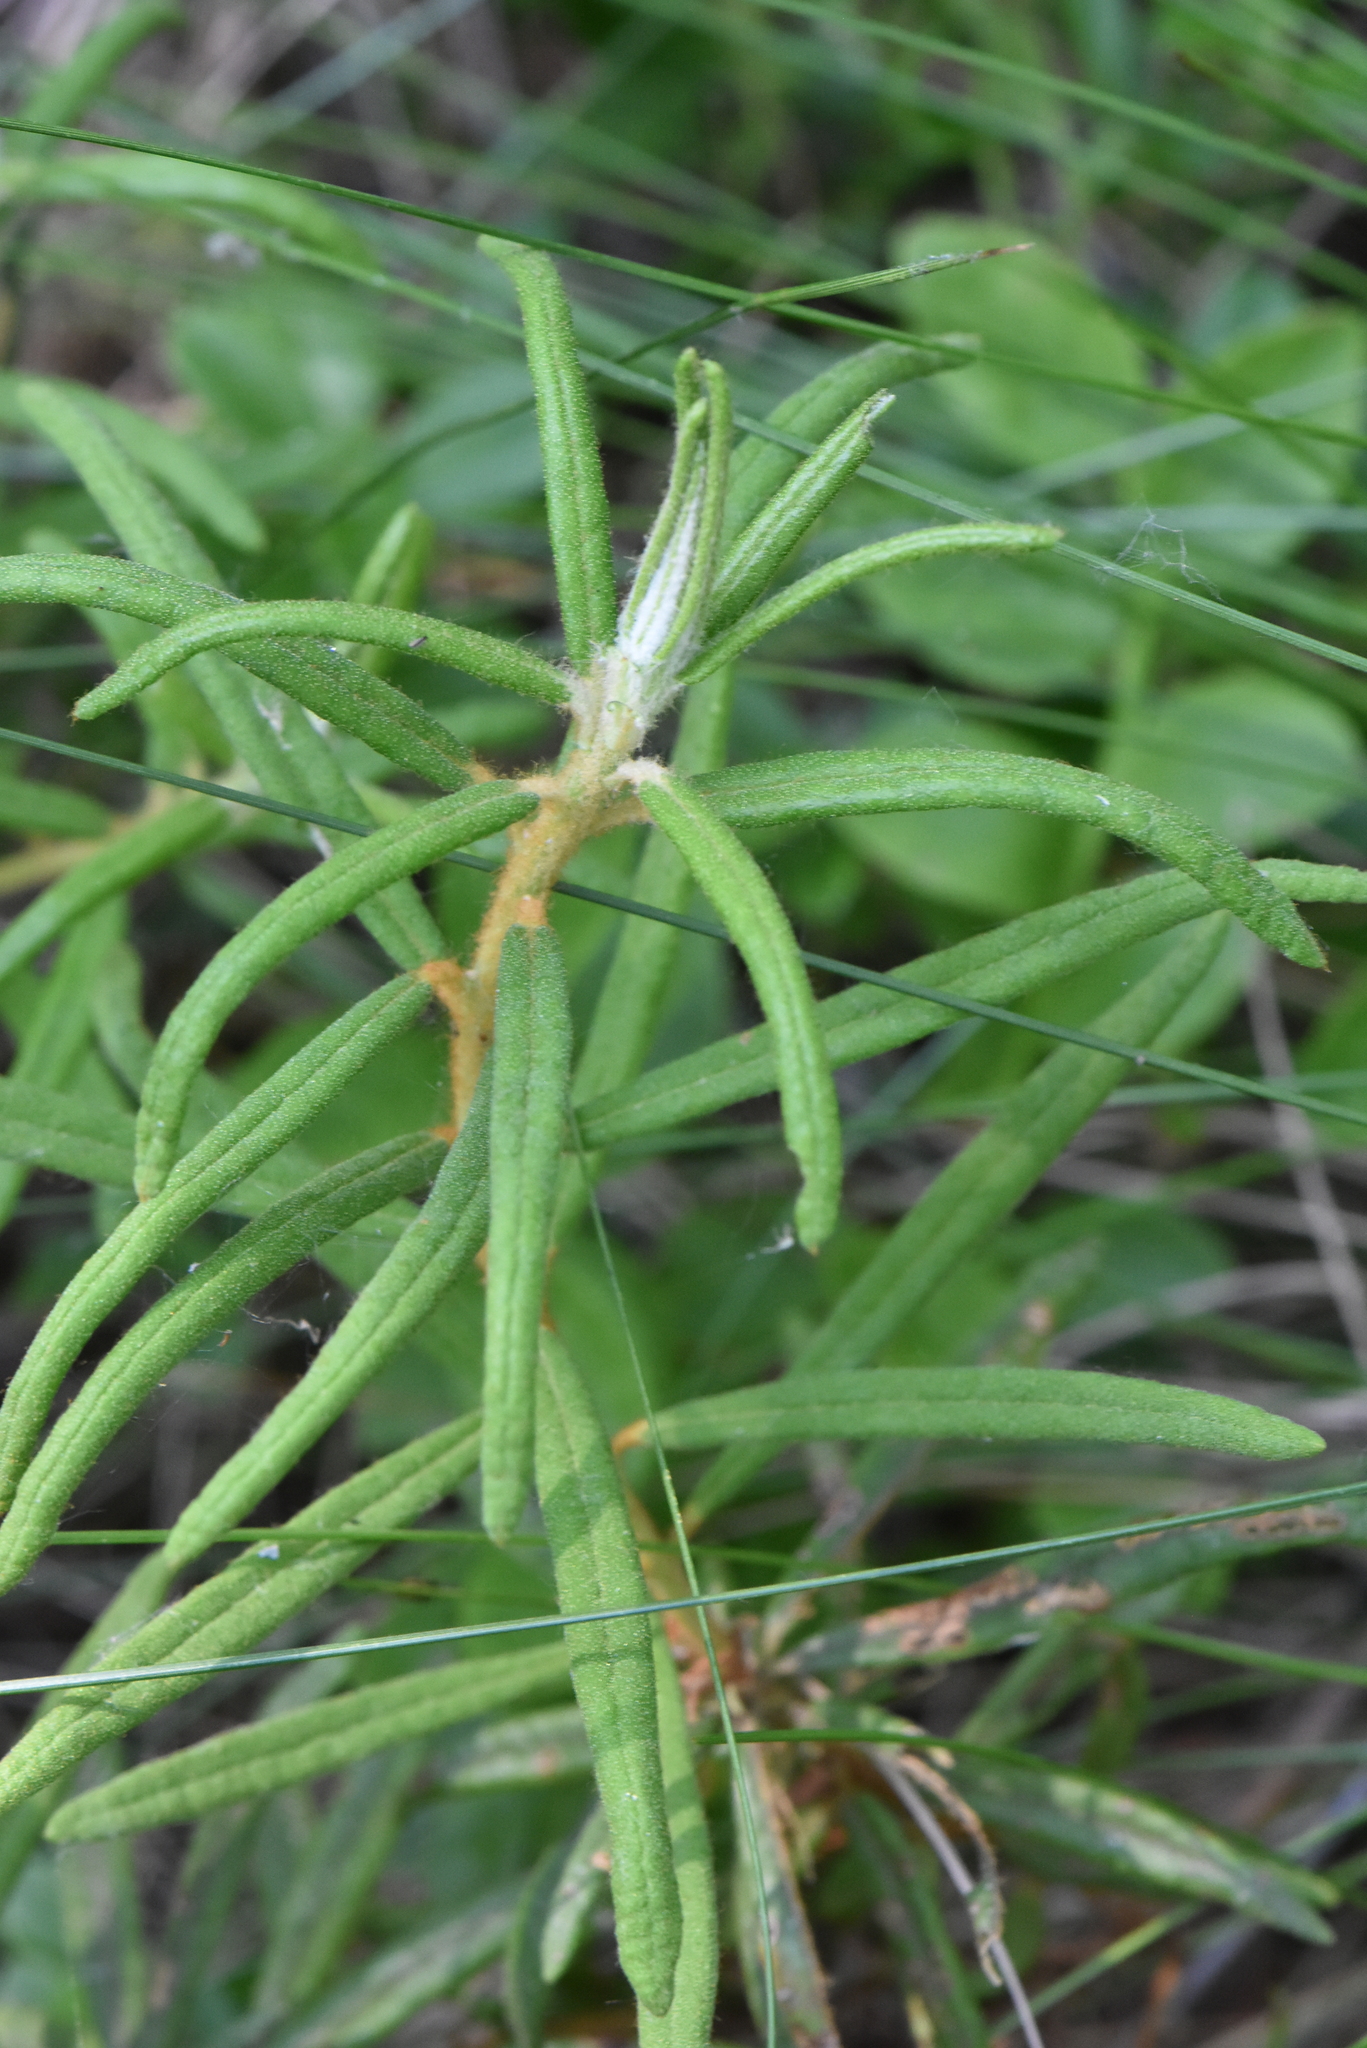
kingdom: Plantae
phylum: Tracheophyta
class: Magnoliopsida
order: Ericales
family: Ericaceae
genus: Rhododendron
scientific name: Rhododendron tomentosum
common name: Marsh labrador tea
